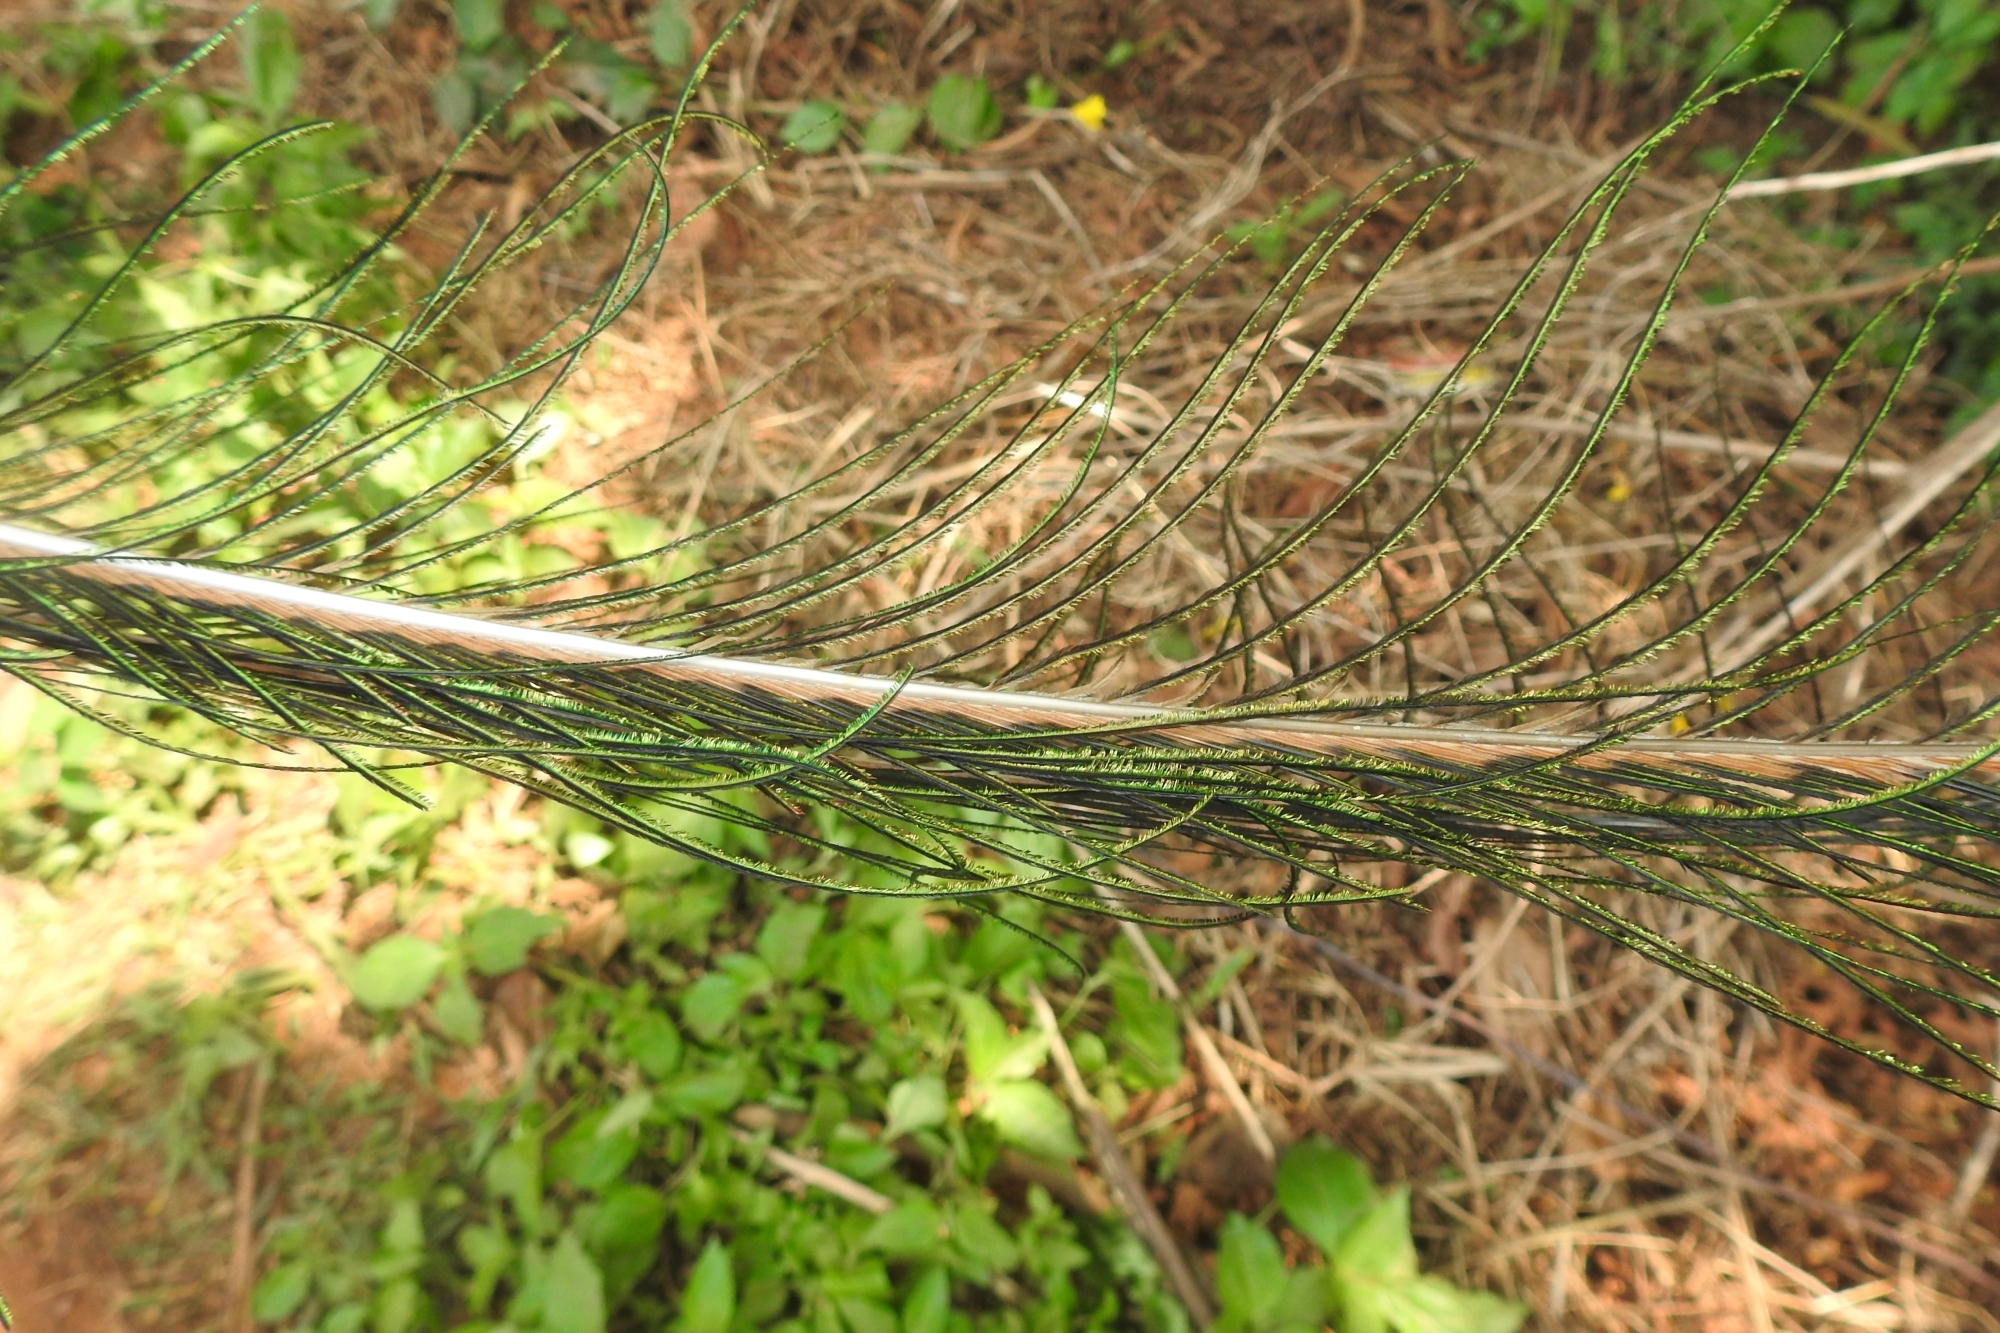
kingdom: Animalia
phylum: Chordata
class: Aves
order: Galliformes
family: Phasianidae
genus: Pavo
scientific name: Pavo cristatus
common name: Indian peafowl
